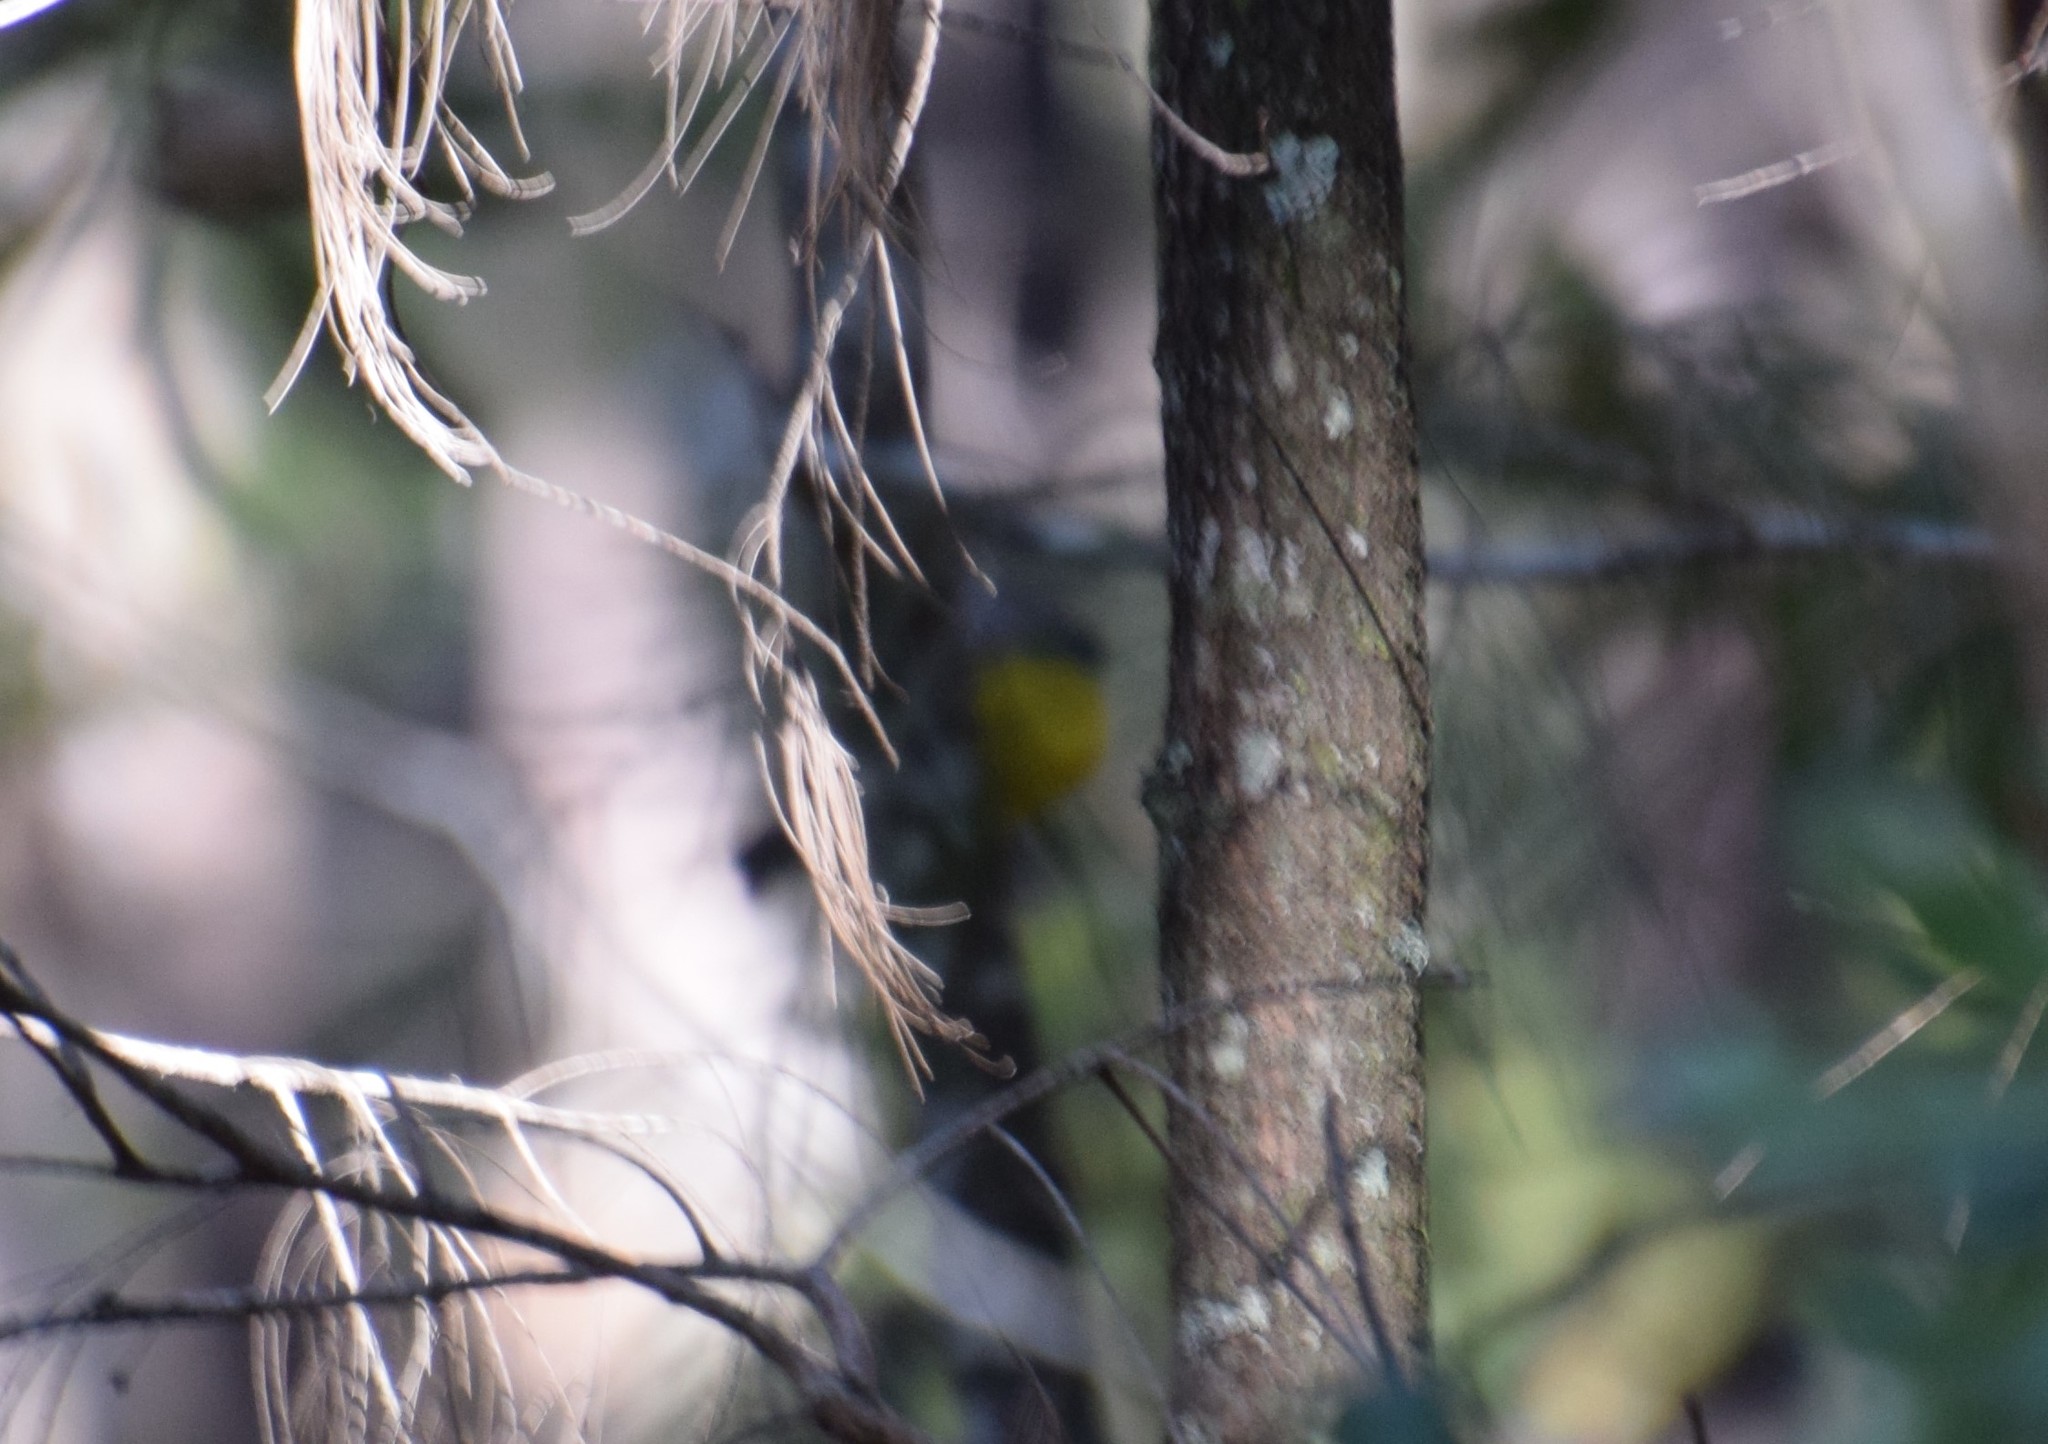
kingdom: Animalia
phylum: Chordata
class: Aves
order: Passeriformes
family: Petroicidae
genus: Eopsaltria
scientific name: Eopsaltria australis
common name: Eastern yellow robin
